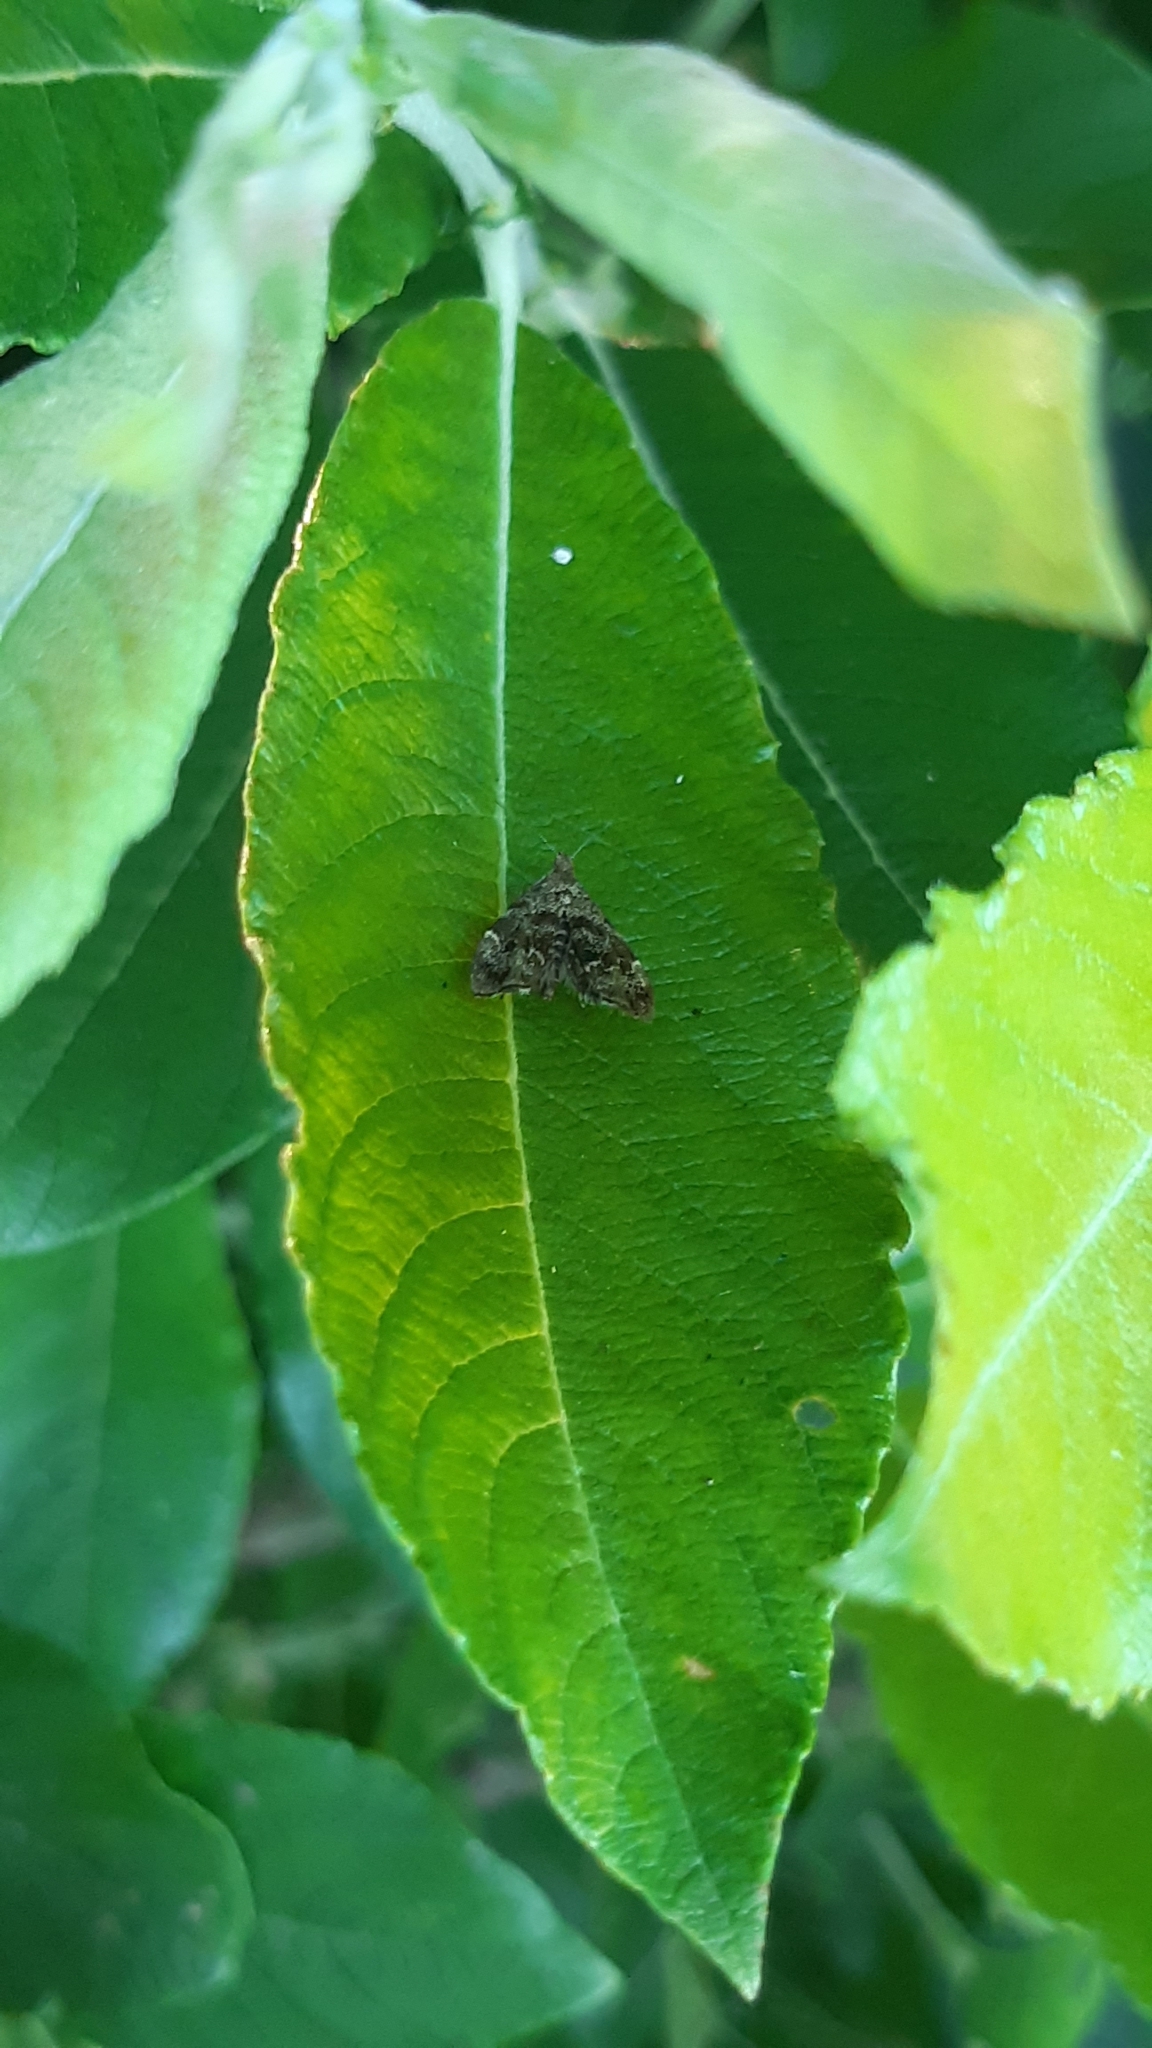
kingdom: Animalia
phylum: Arthropoda
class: Insecta
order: Lepidoptera
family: Choreutidae
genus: Anthophila
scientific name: Anthophila fabriciana
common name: Nettle-tap
